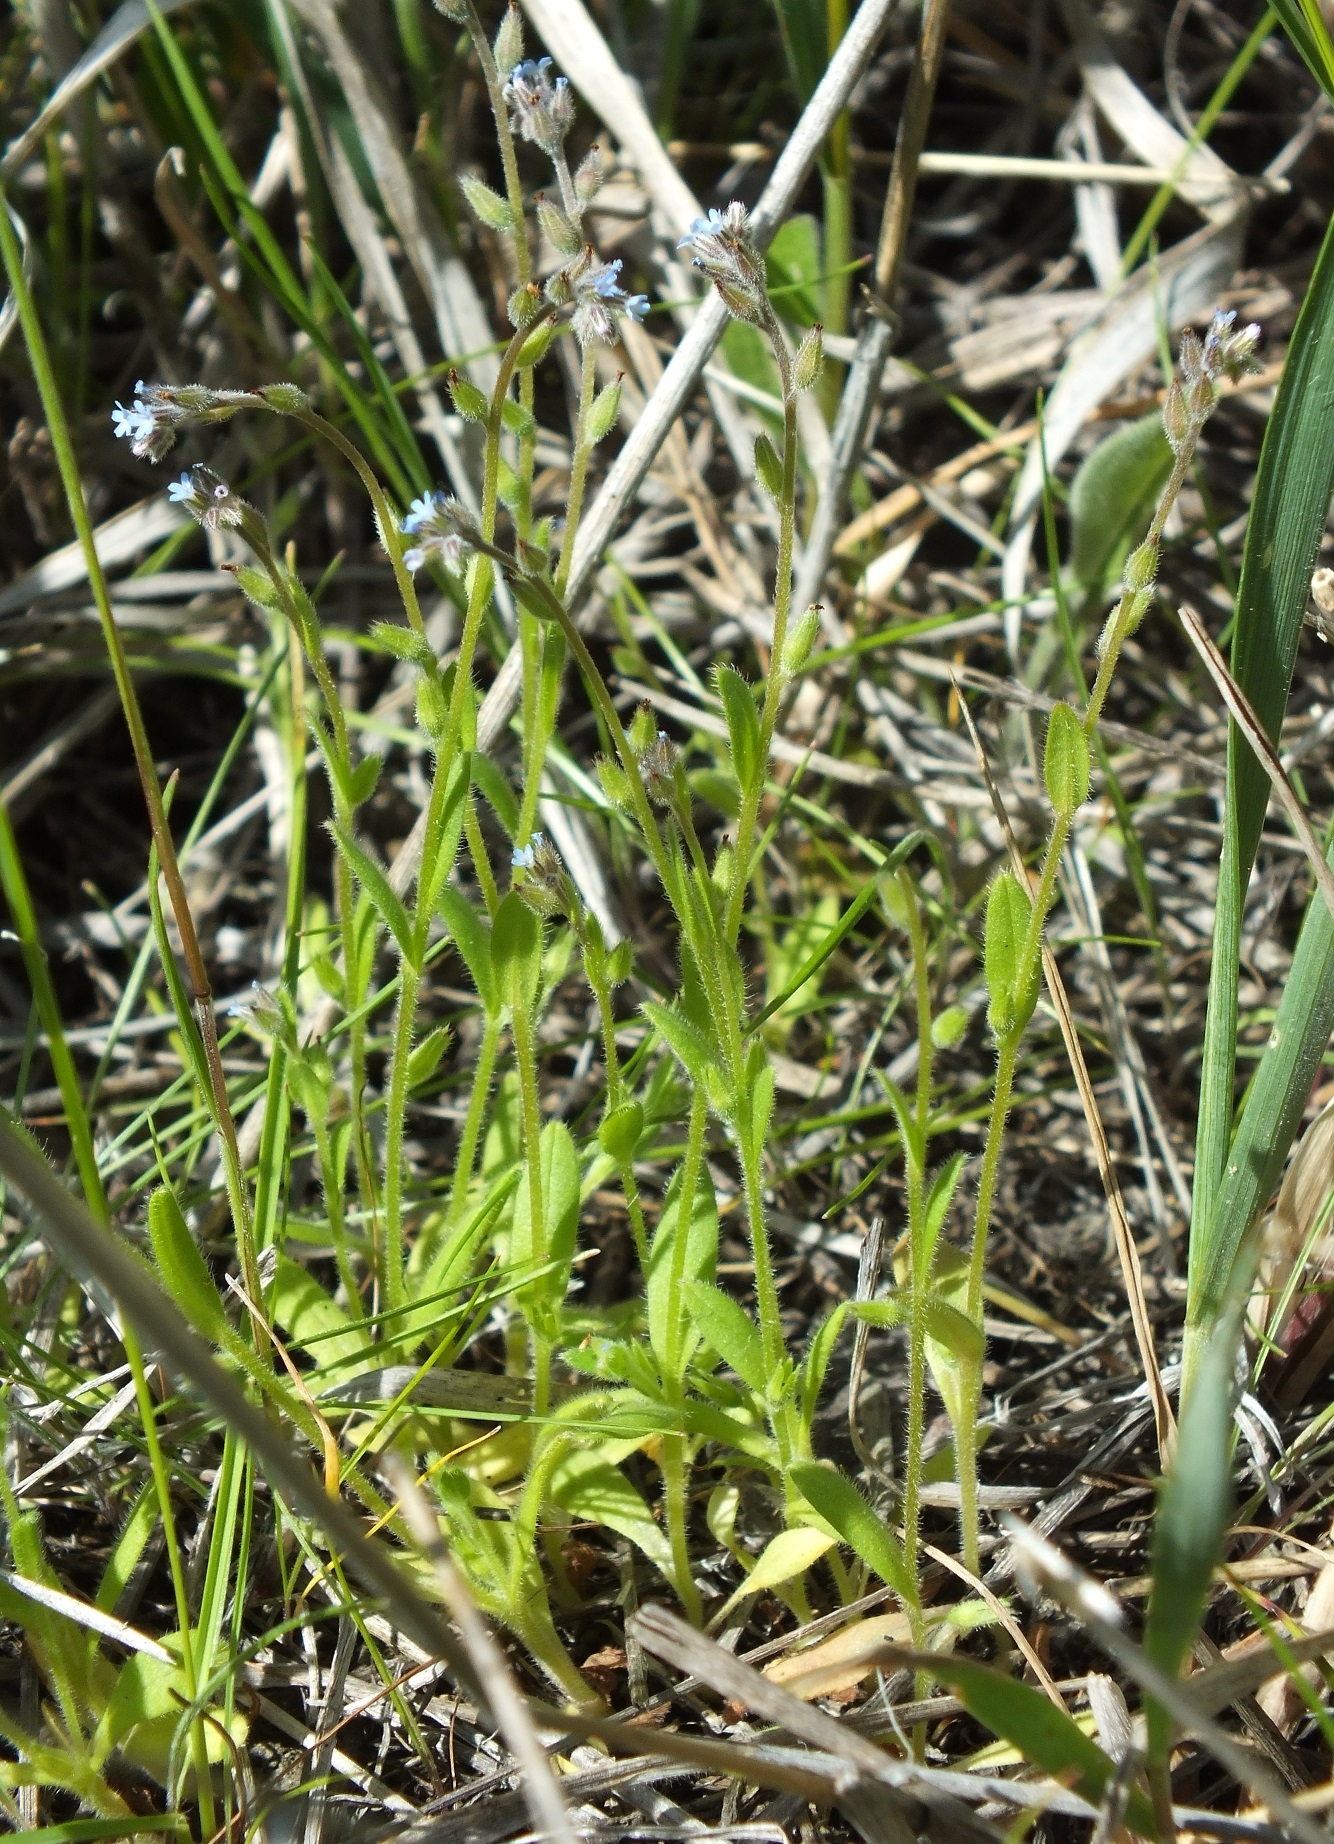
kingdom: Plantae
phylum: Tracheophyta
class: Magnoliopsida
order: Boraginales
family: Boraginaceae
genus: Myosotis
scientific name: Myosotis stricta
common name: Strict forget-me-not
